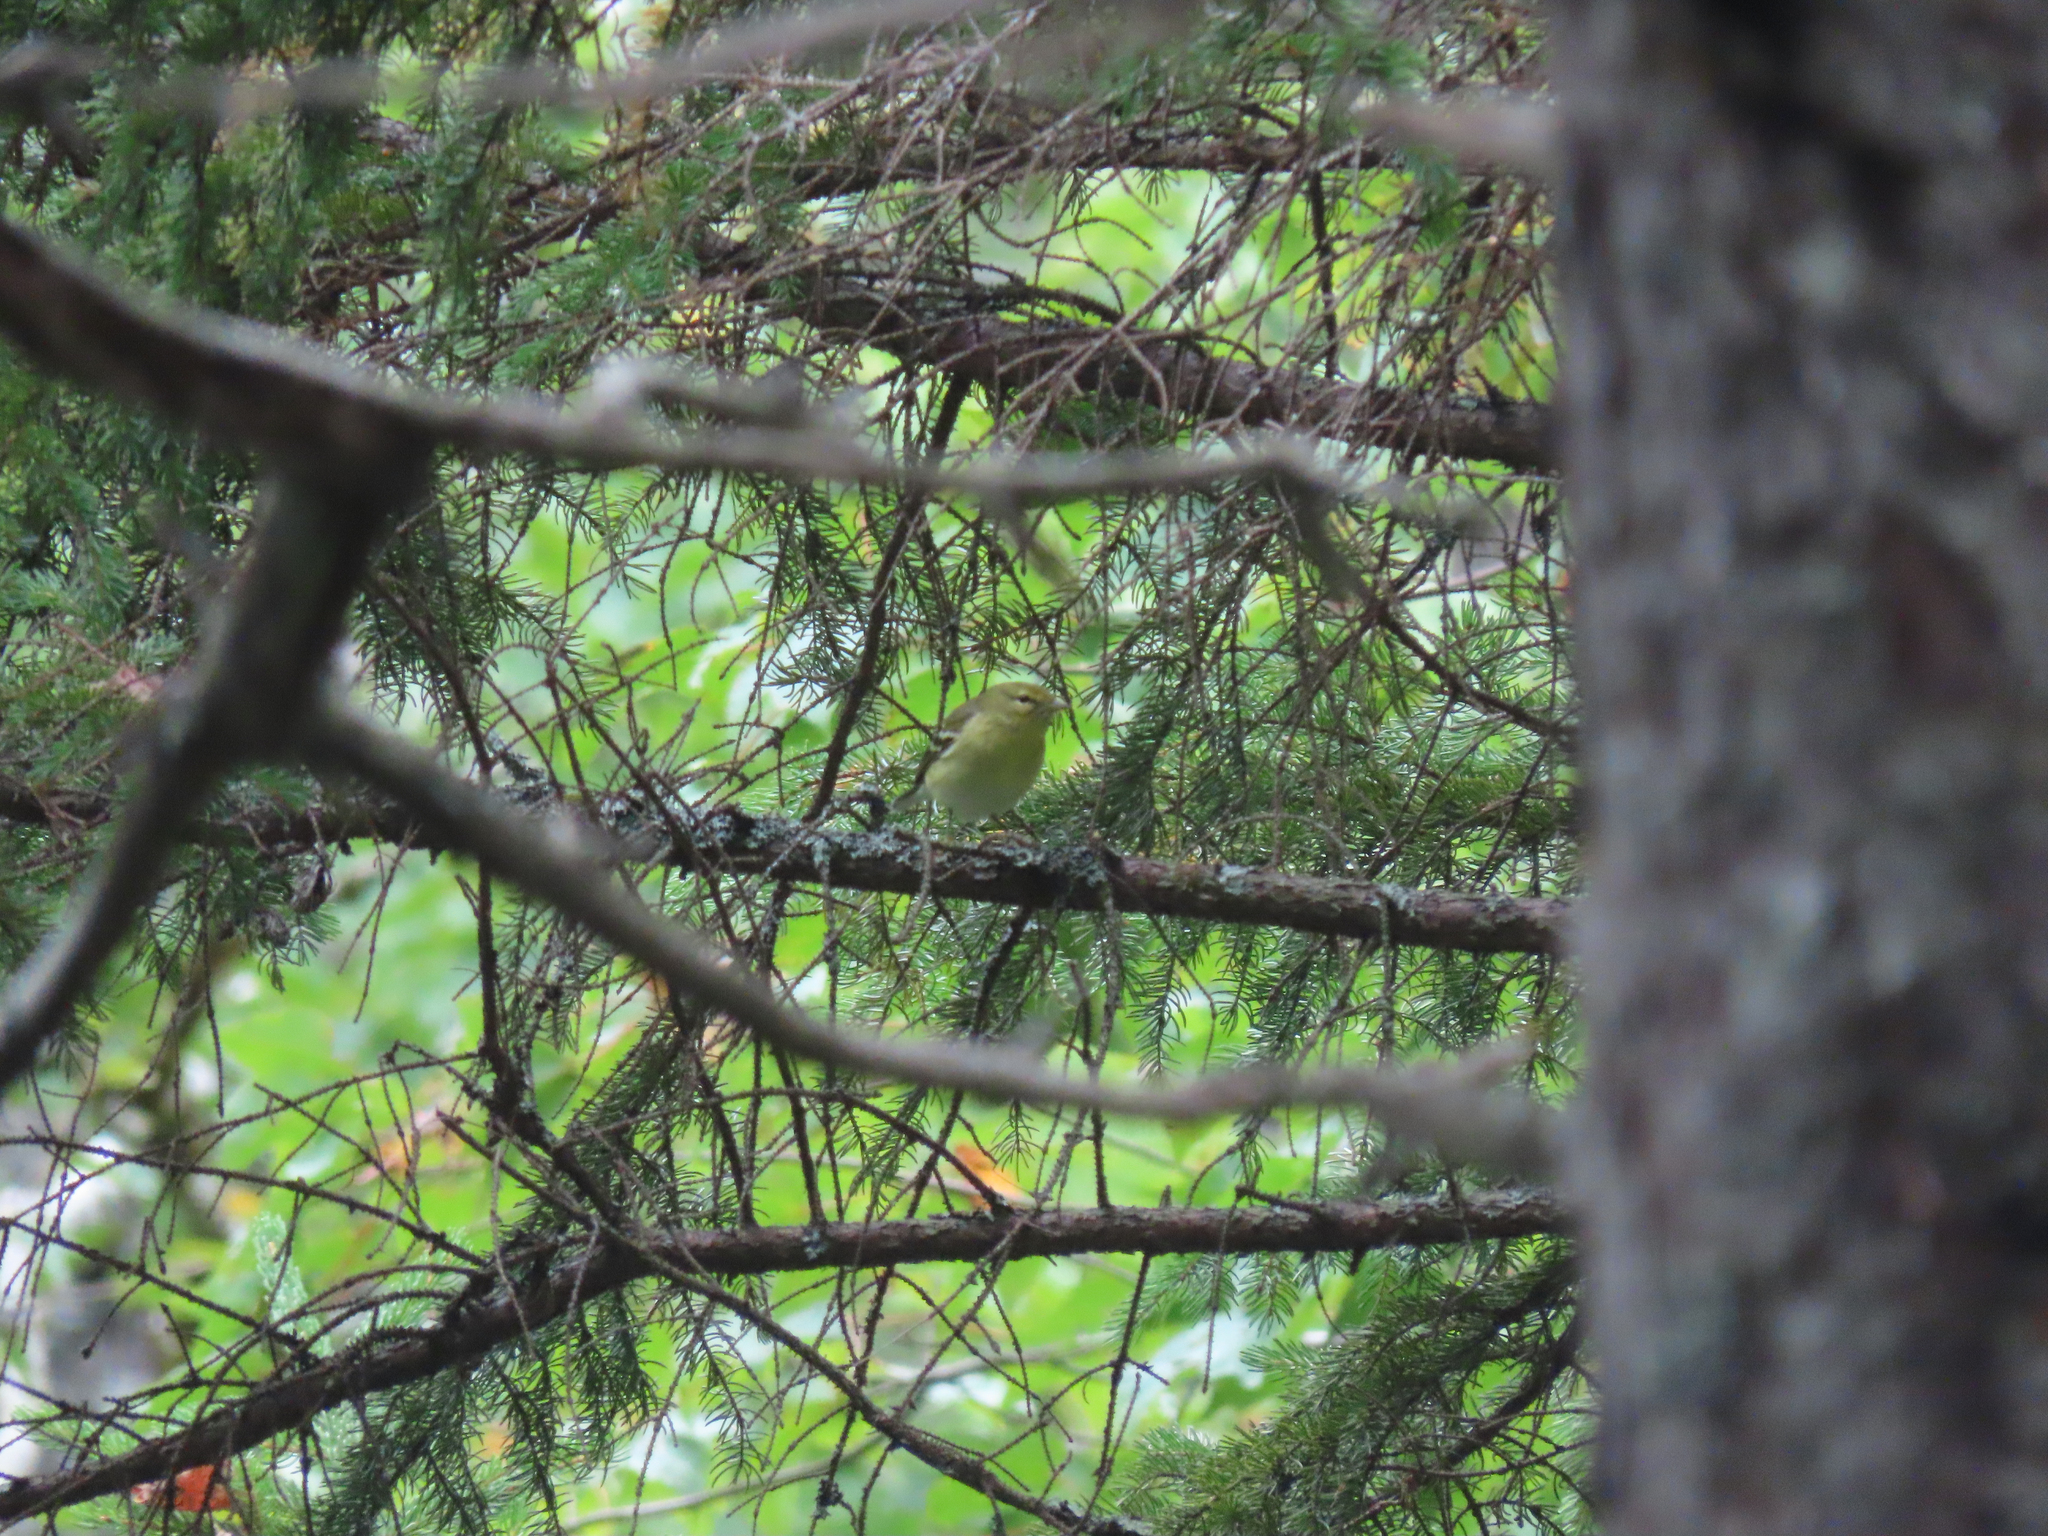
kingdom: Animalia
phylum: Chordata
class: Aves
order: Passeriformes
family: Parulidae
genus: Setophaga
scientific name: Setophaga striata
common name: Blackpoll warbler
